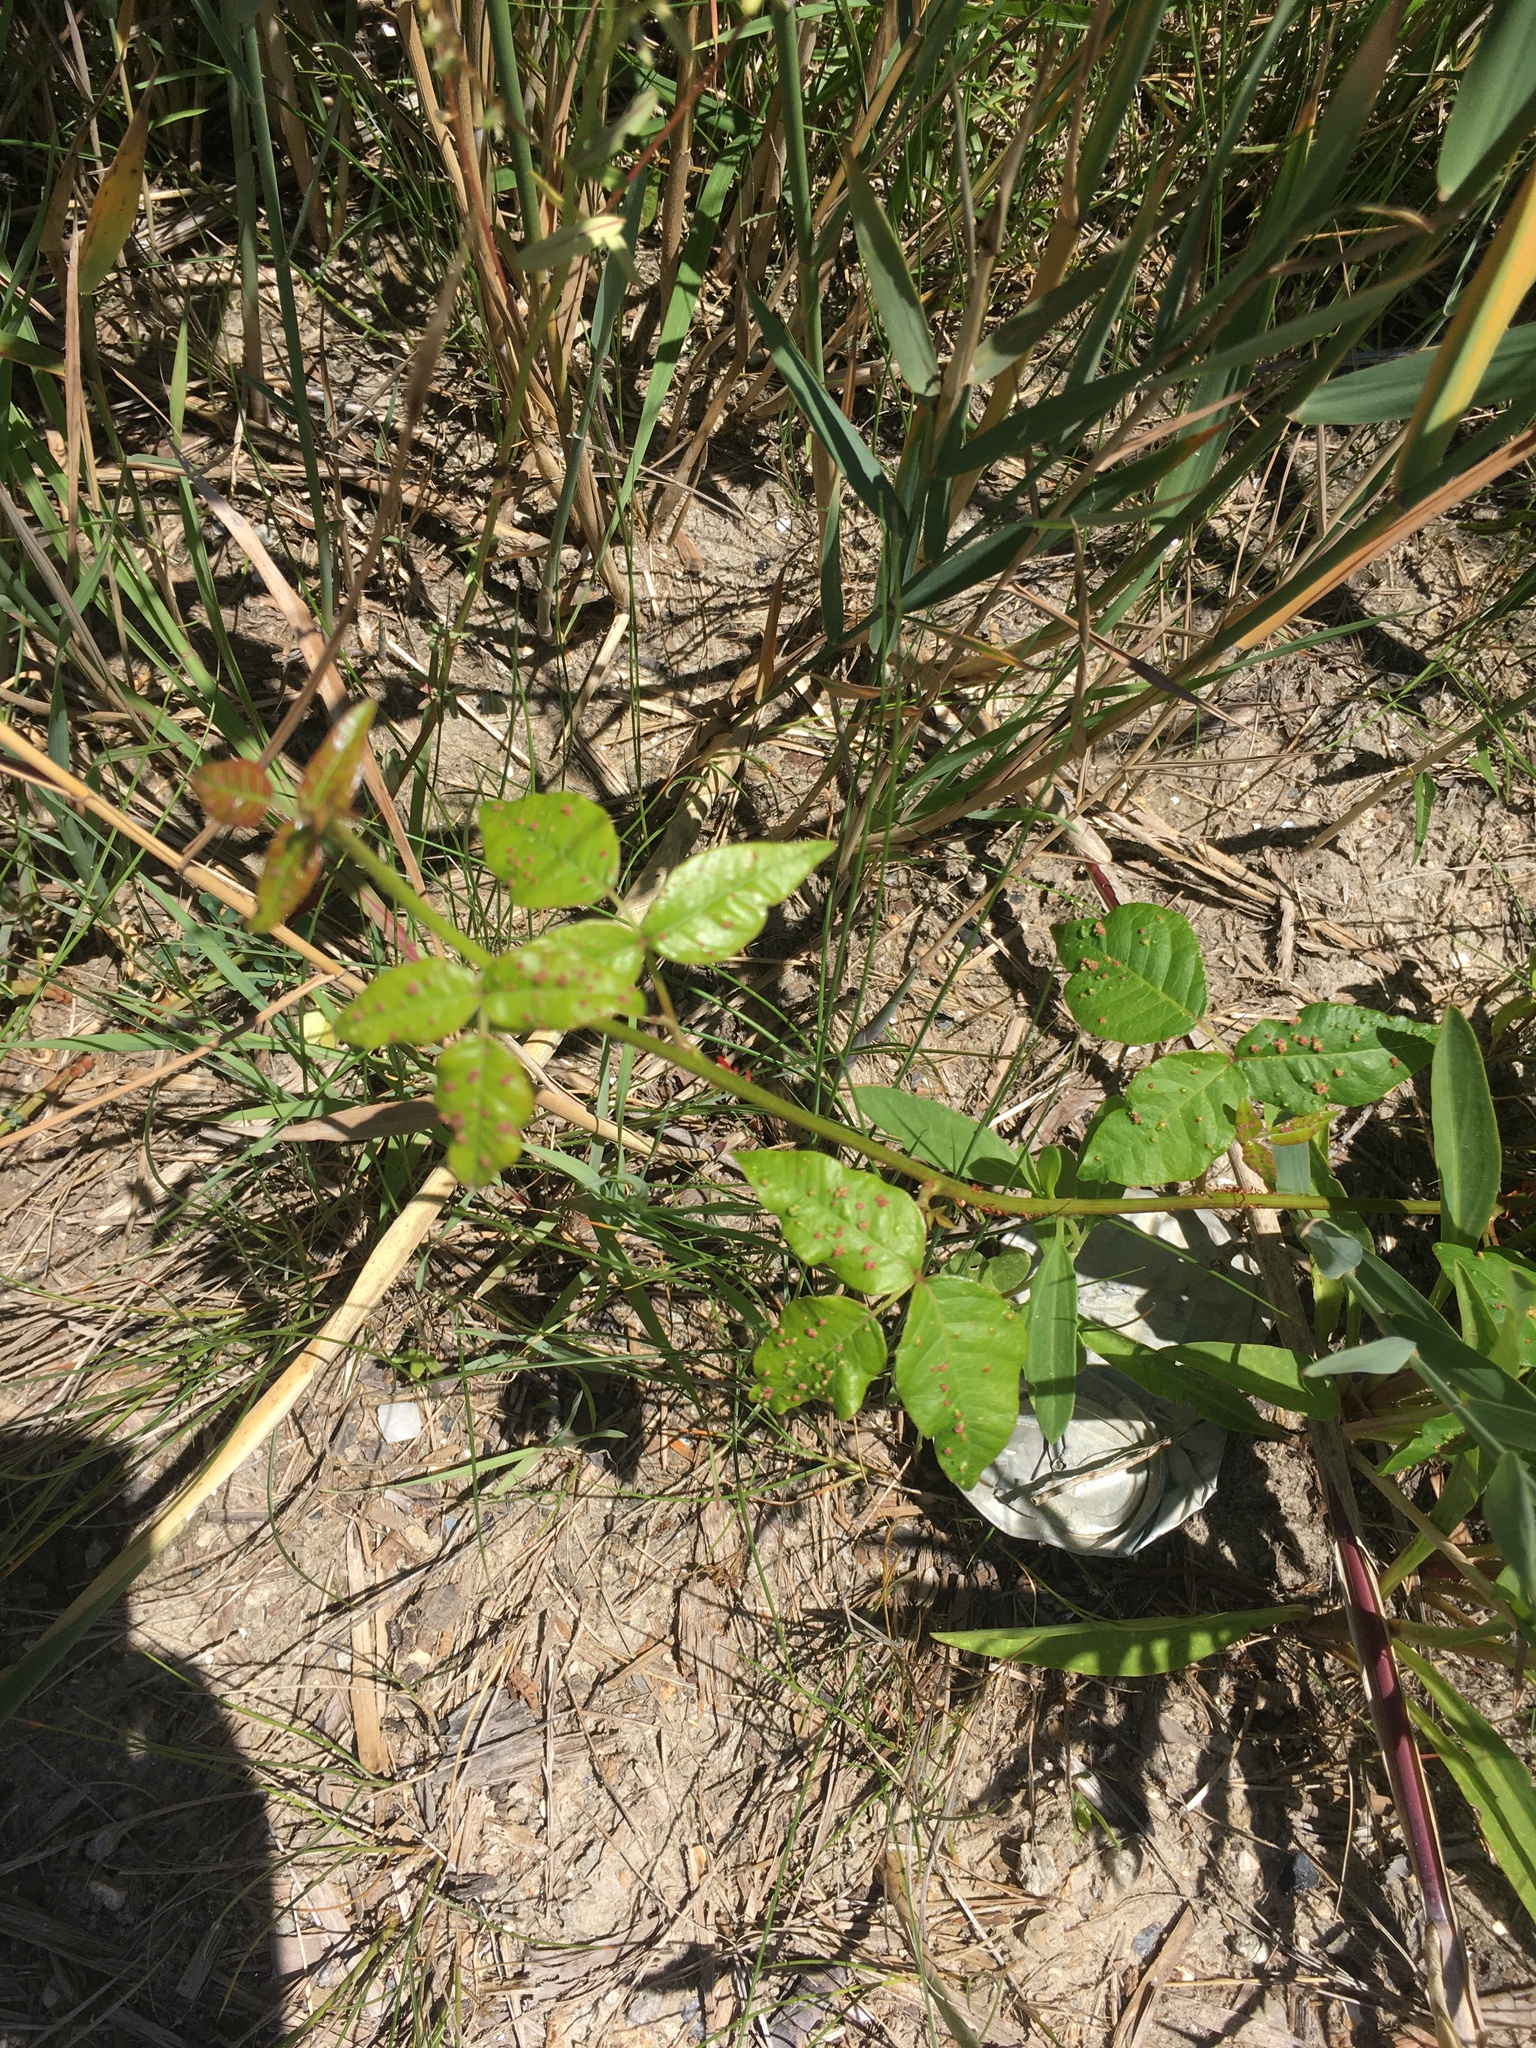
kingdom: Plantae
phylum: Tracheophyta
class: Magnoliopsida
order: Sapindales
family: Anacardiaceae
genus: Toxicodendron
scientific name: Toxicodendron radicans
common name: Poison ivy
